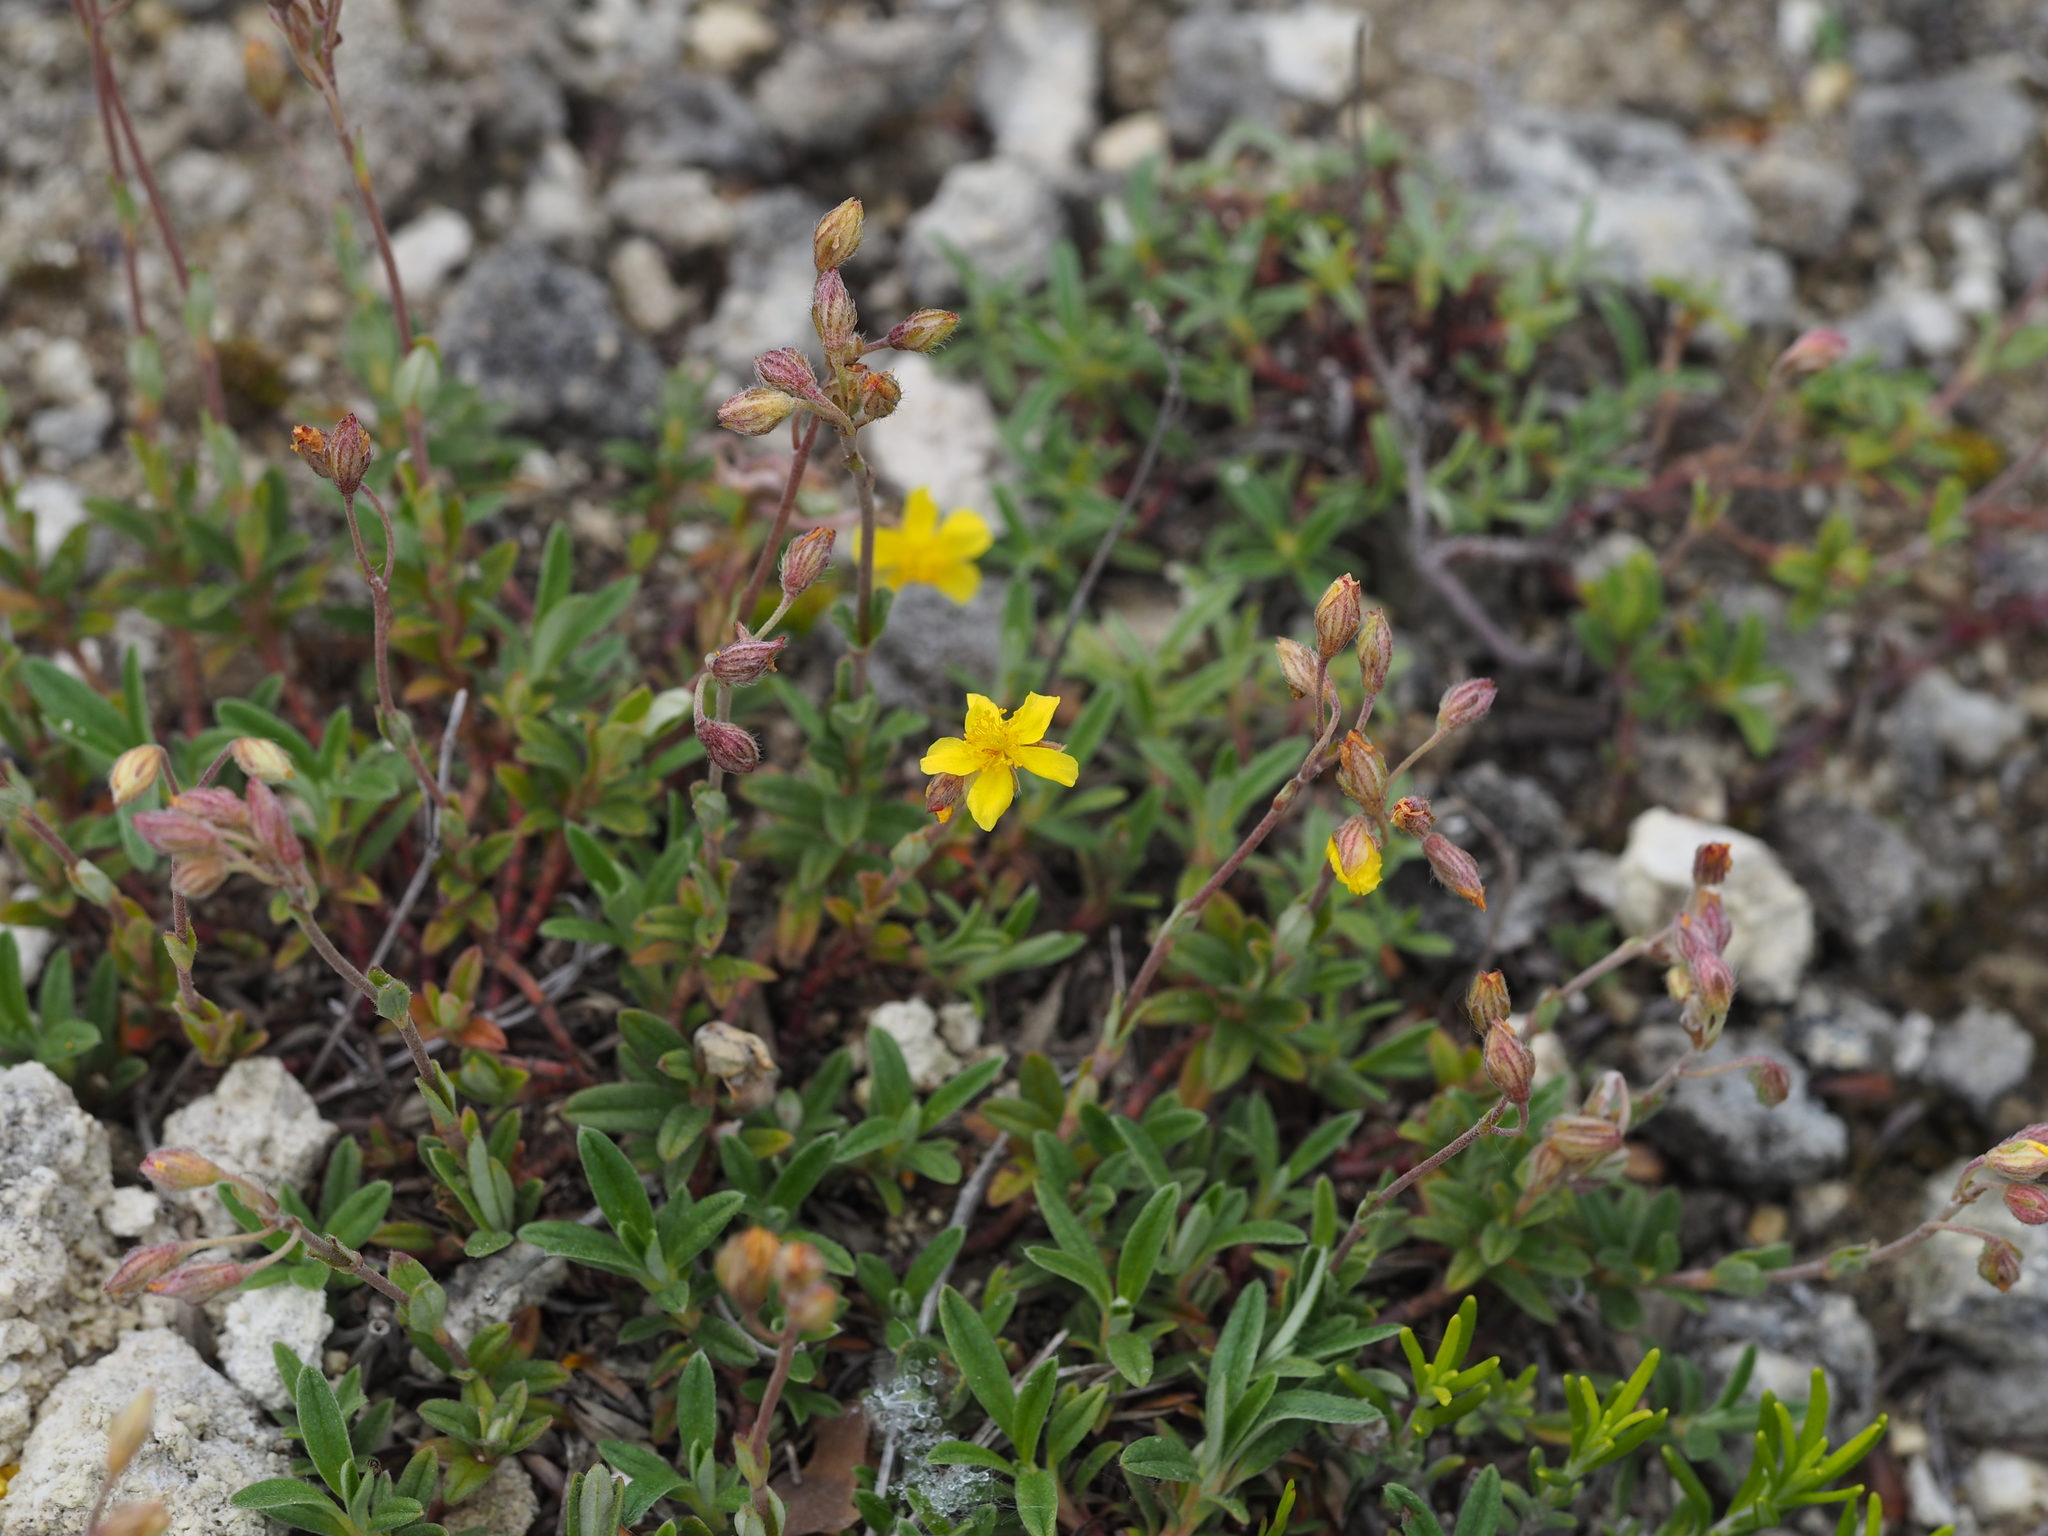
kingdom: Plantae
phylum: Tracheophyta
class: Magnoliopsida
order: Malvales
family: Cistaceae
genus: Helianthemum
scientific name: Helianthemum canum
